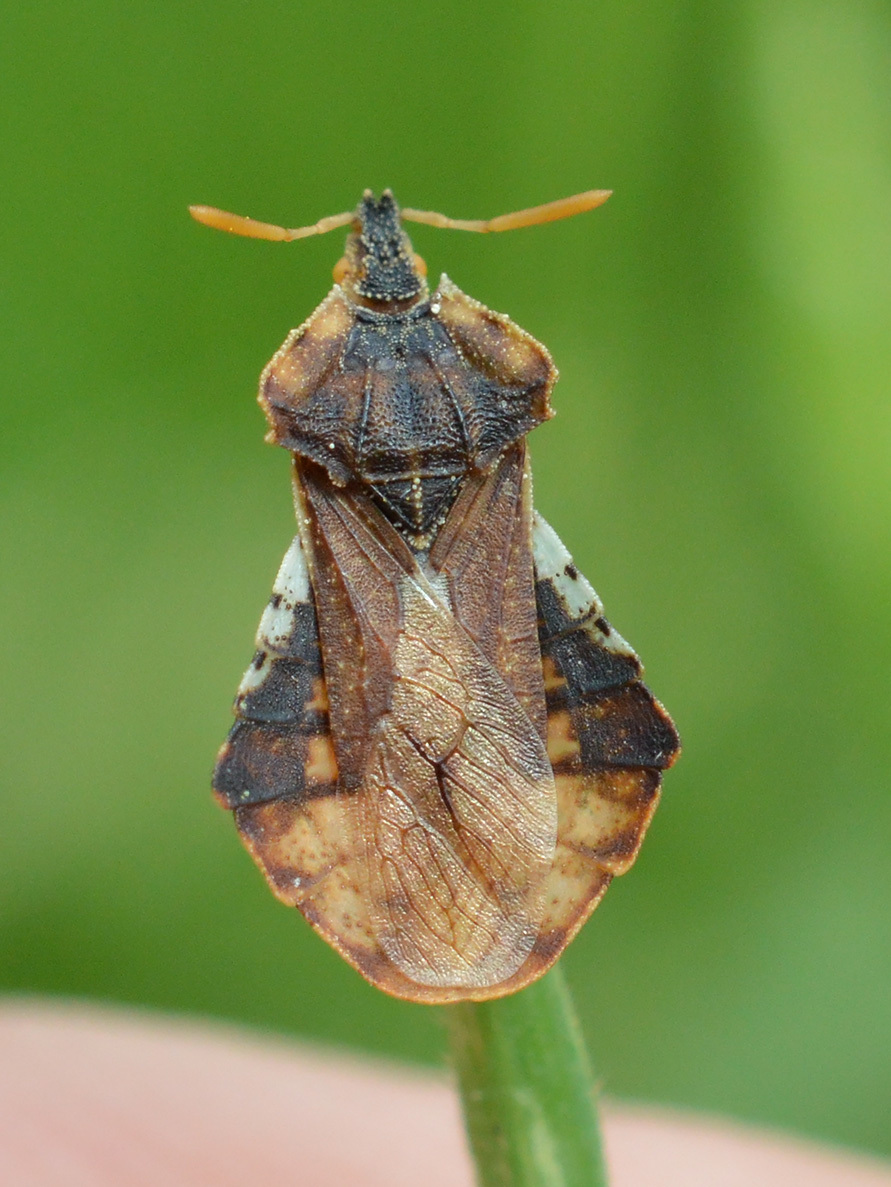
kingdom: Animalia
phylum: Arthropoda
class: Insecta
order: Hemiptera
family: Reduviidae
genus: Phymata
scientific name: Phymata crassipes
